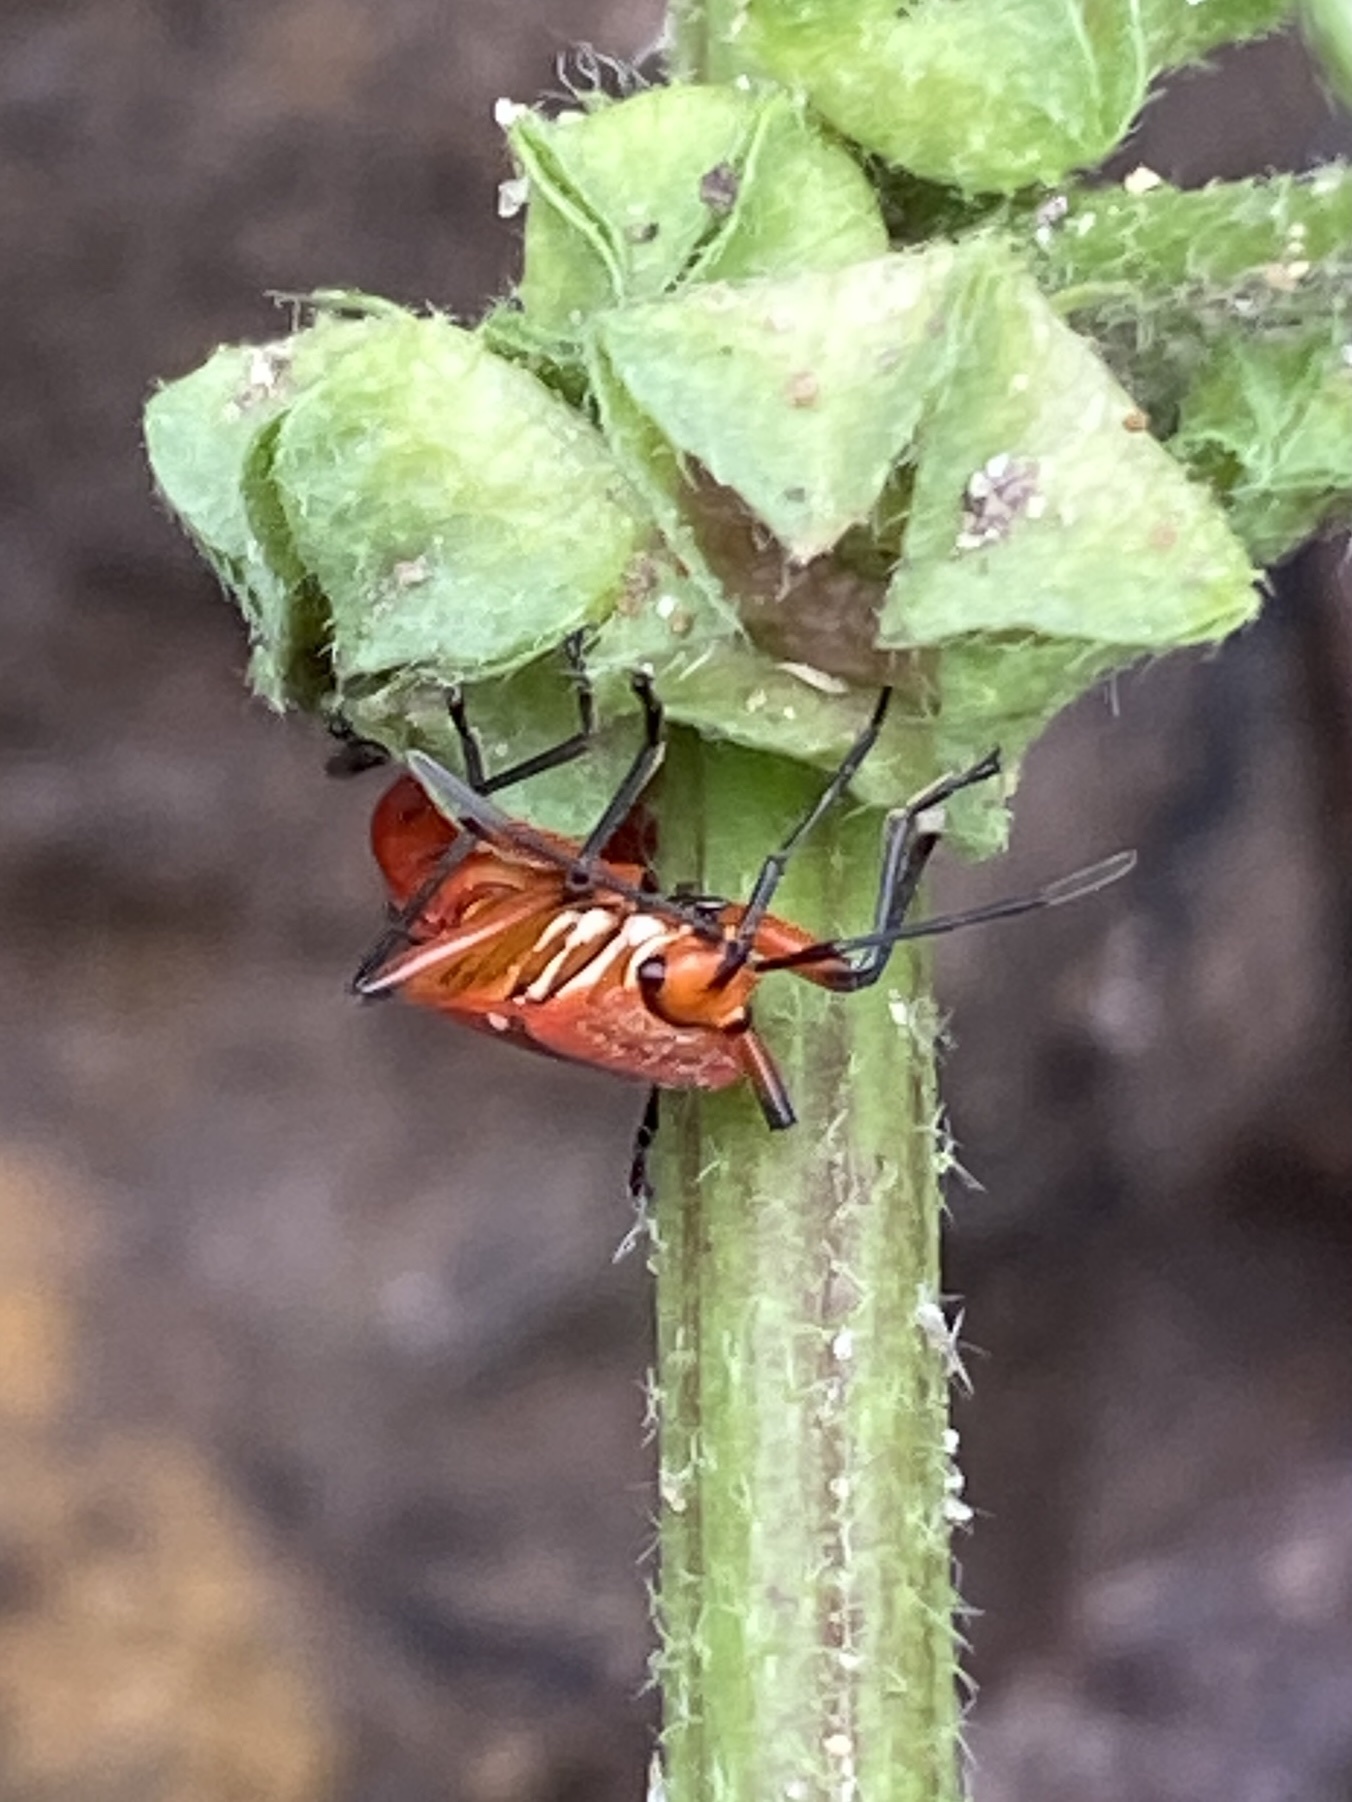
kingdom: Animalia
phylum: Arthropoda
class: Insecta
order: Hemiptera
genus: Cenaeus
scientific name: Cenaeus
